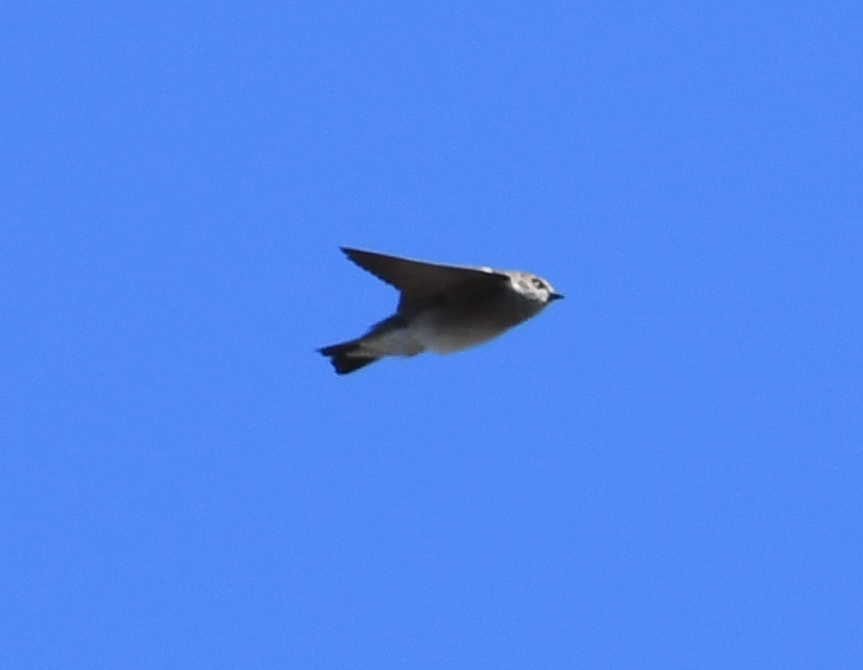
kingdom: Animalia
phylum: Chordata
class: Aves
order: Passeriformes
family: Hirundinidae
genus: Stelgidopteryx
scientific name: Stelgidopteryx serripennis
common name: Northern rough-winged swallow
